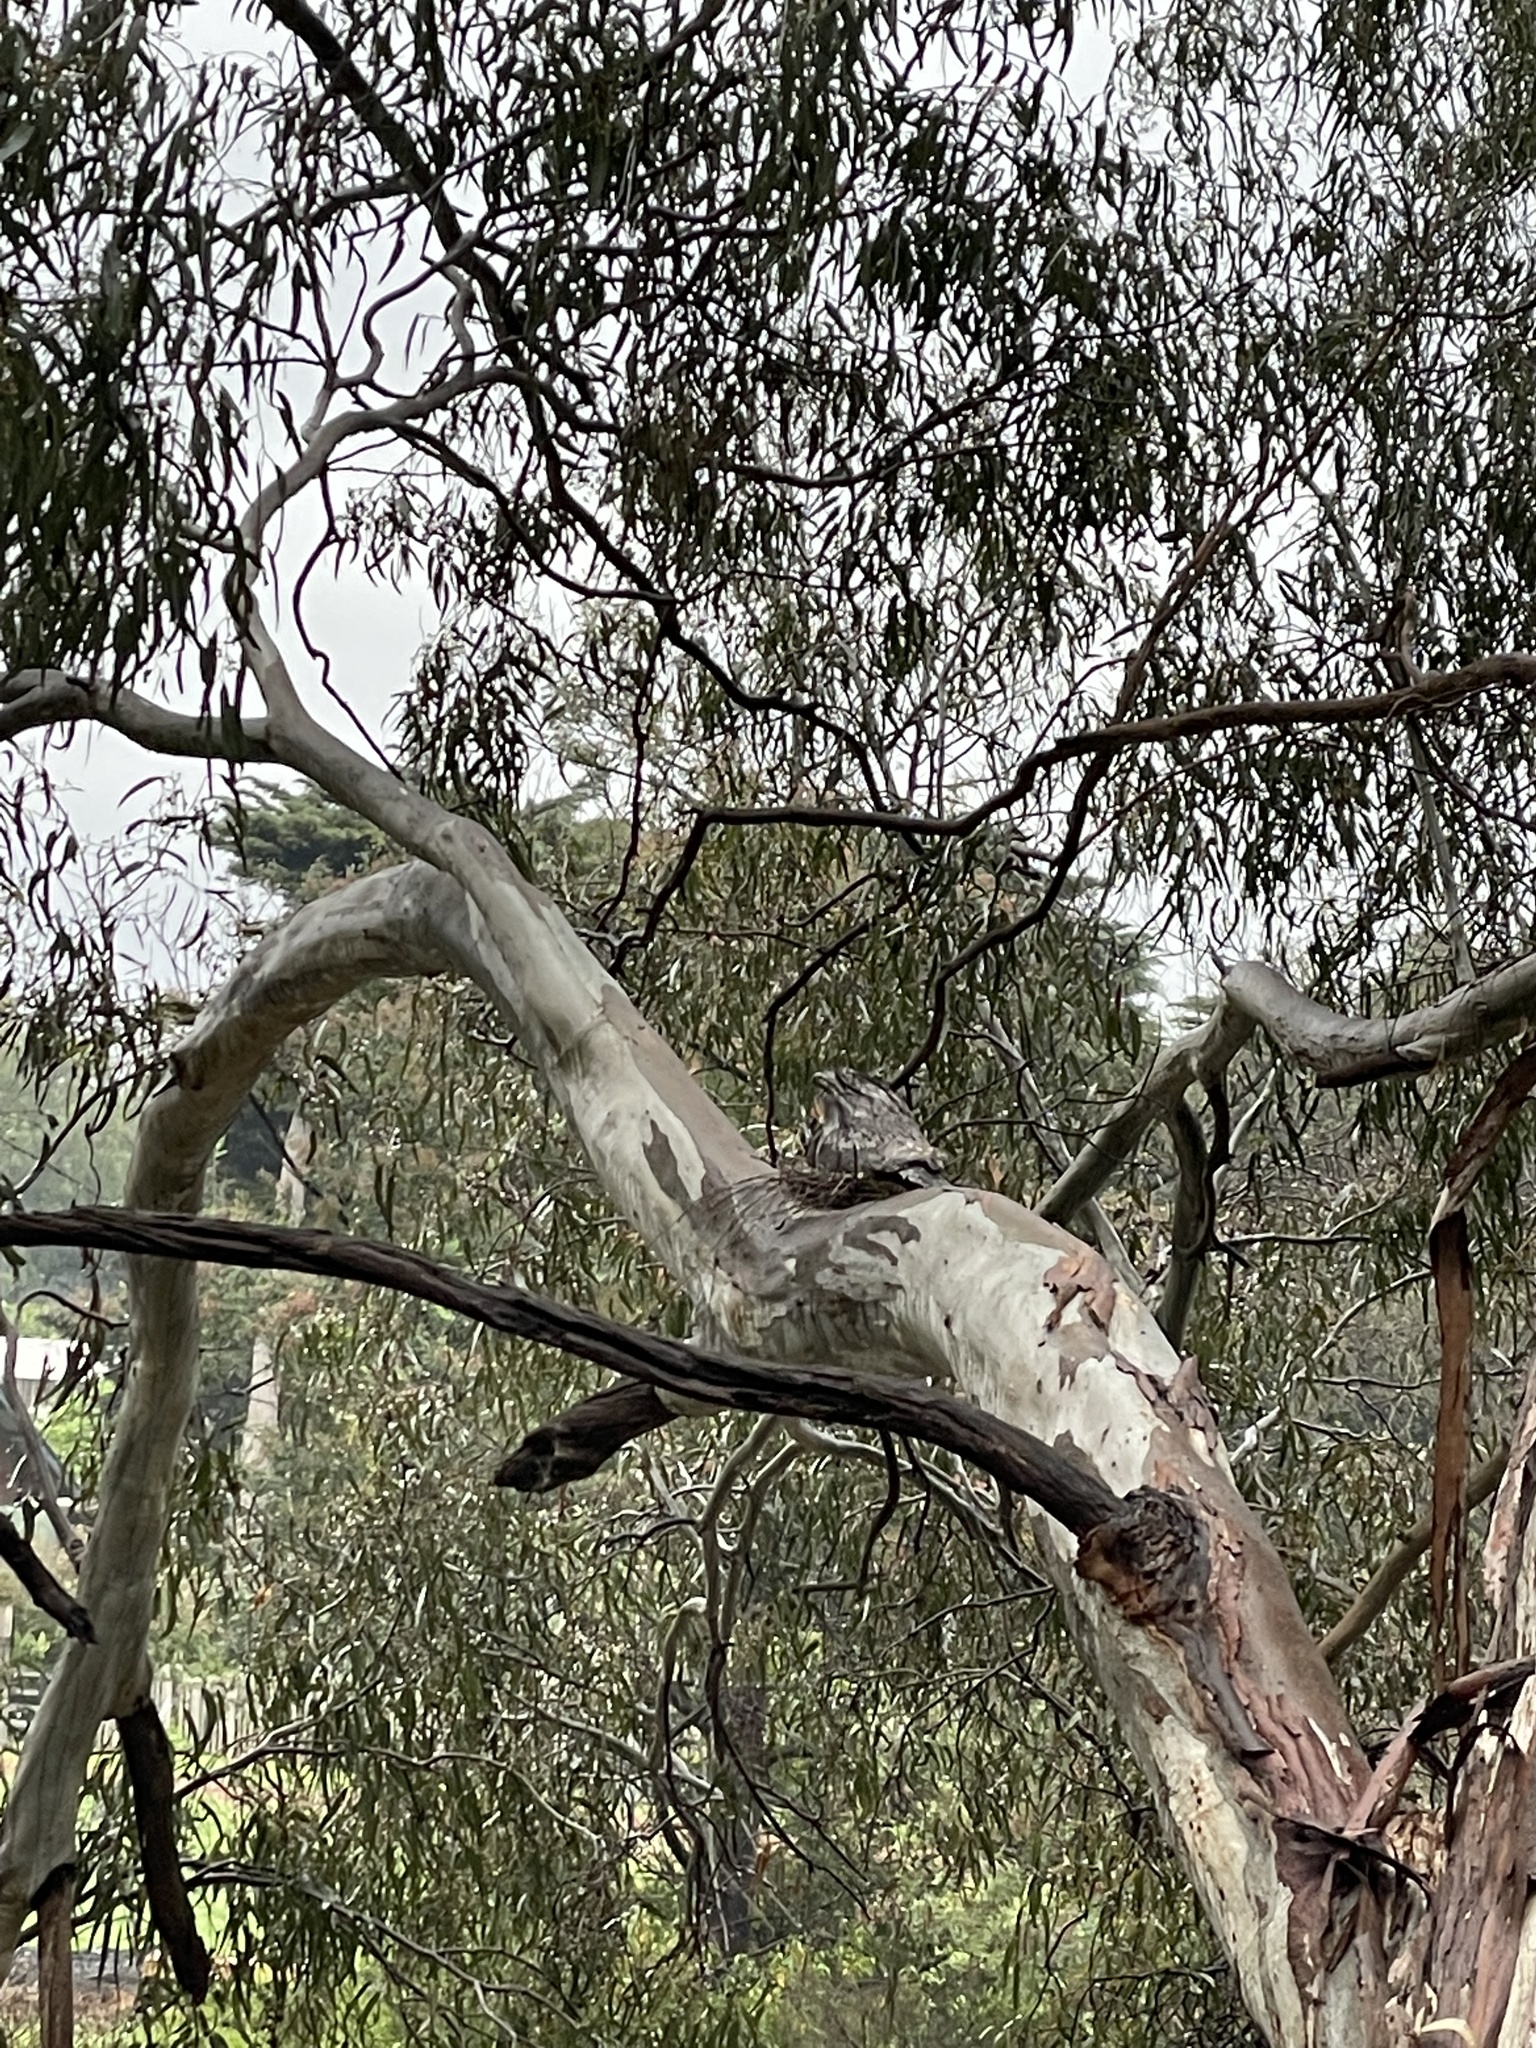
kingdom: Animalia
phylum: Chordata
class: Aves
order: Caprimulgiformes
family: Podargidae
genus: Podargus
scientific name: Podargus strigoides
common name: Tawny frogmouth
